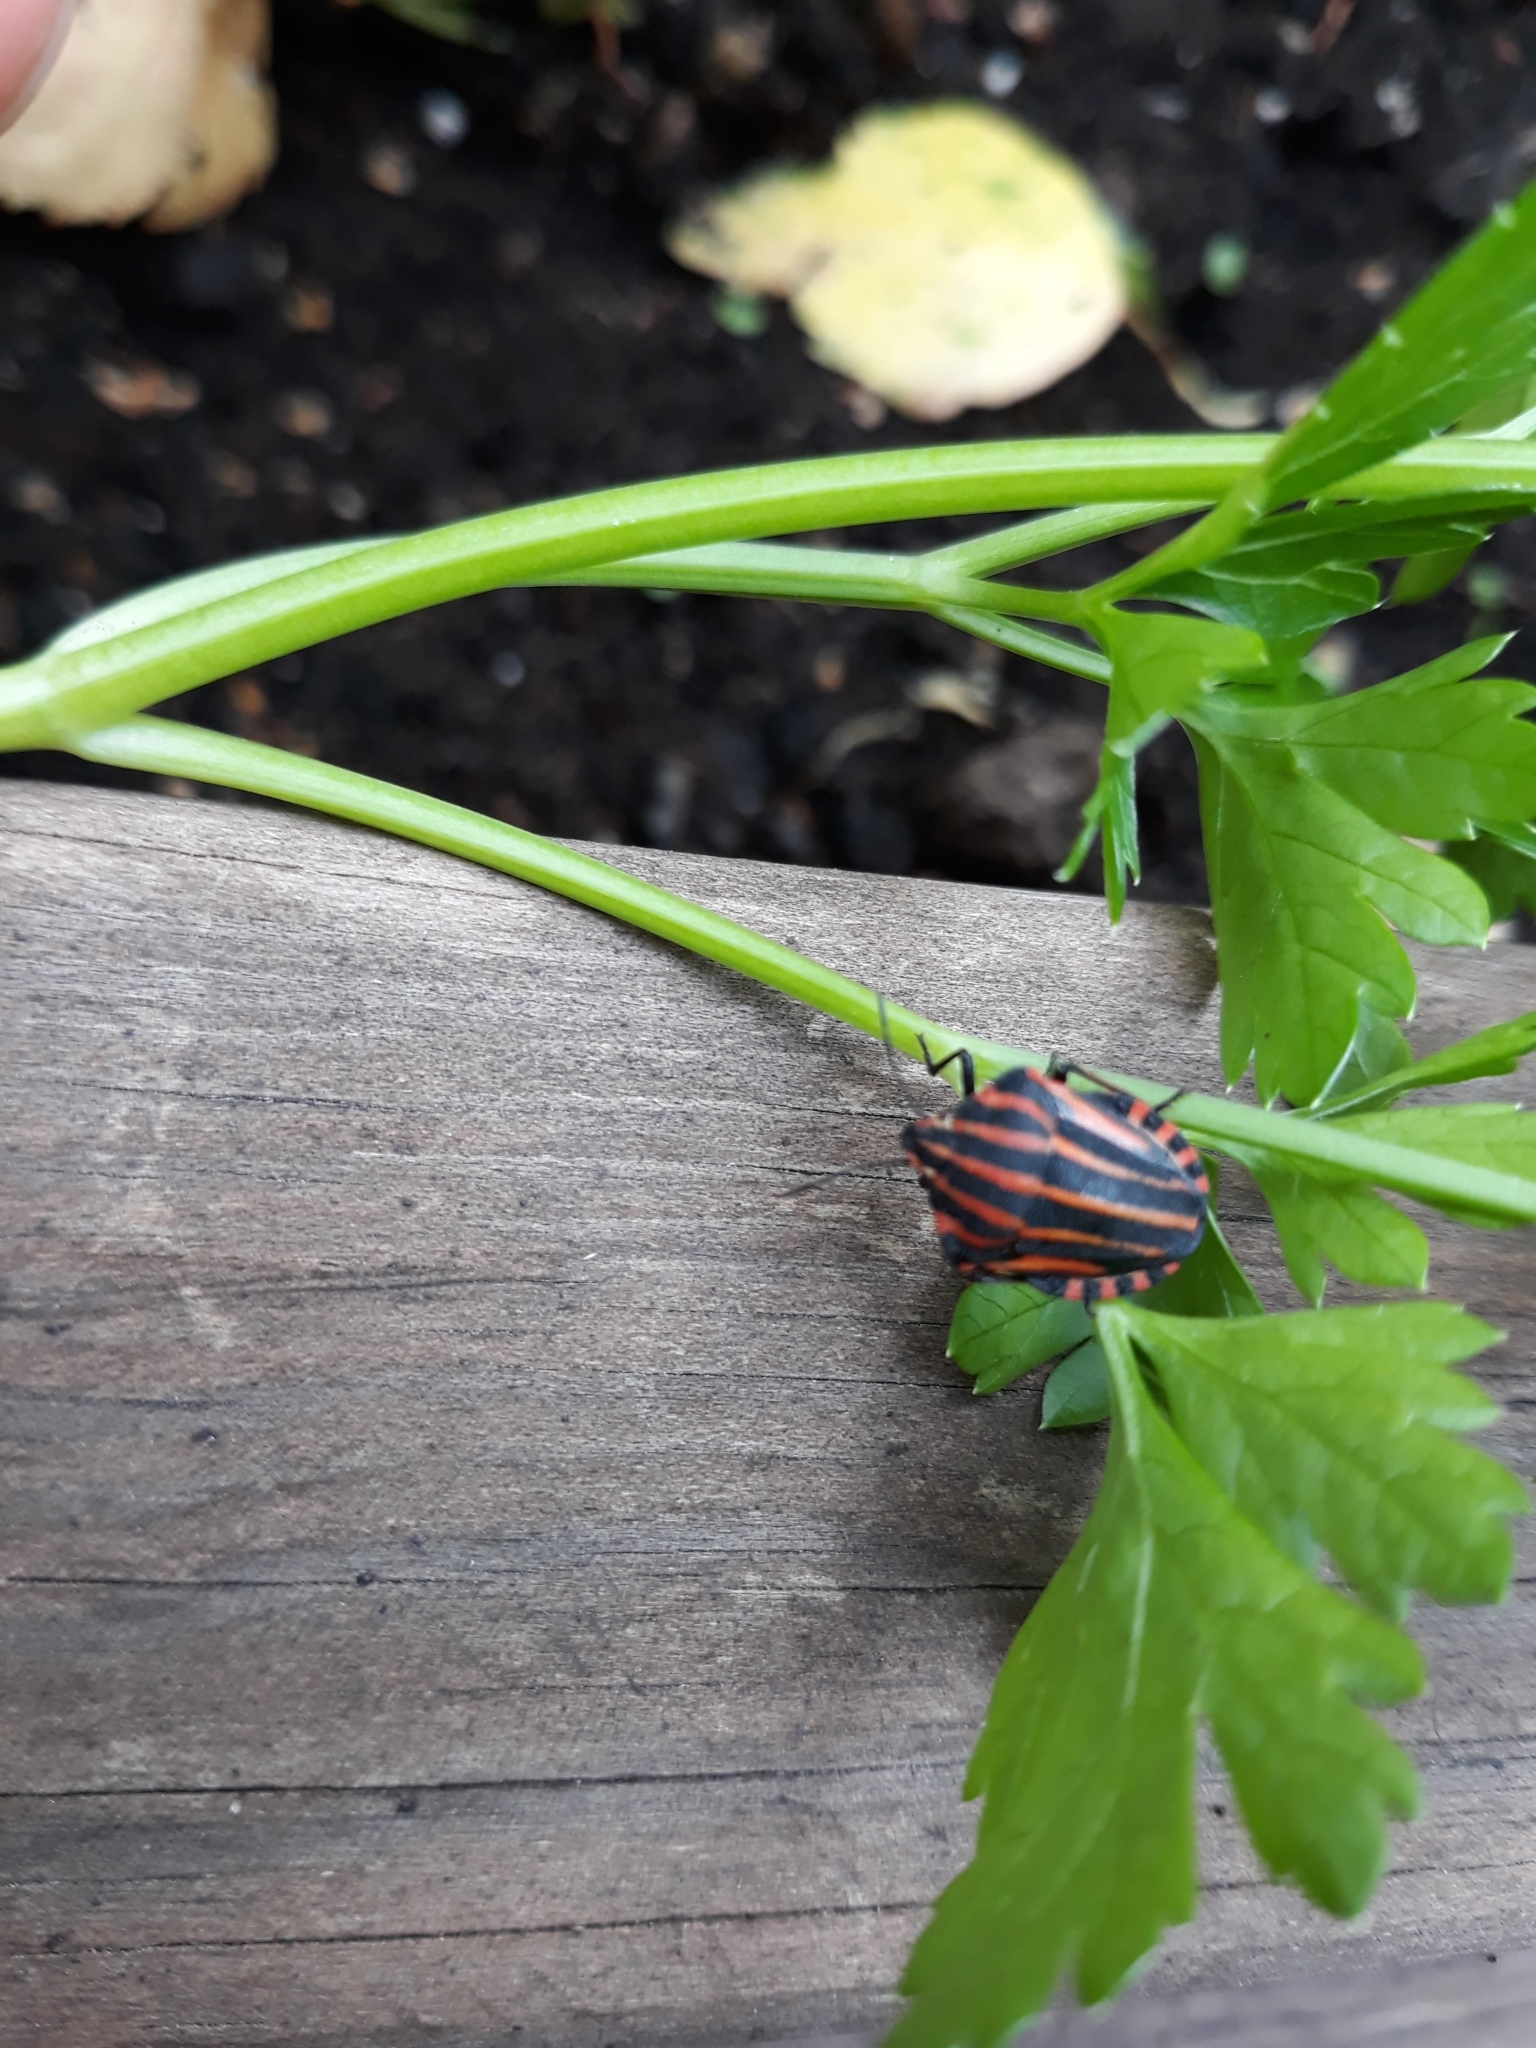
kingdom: Animalia
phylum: Arthropoda
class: Insecta
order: Hemiptera
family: Pentatomidae
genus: Graphosoma
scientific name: Graphosoma italicum
